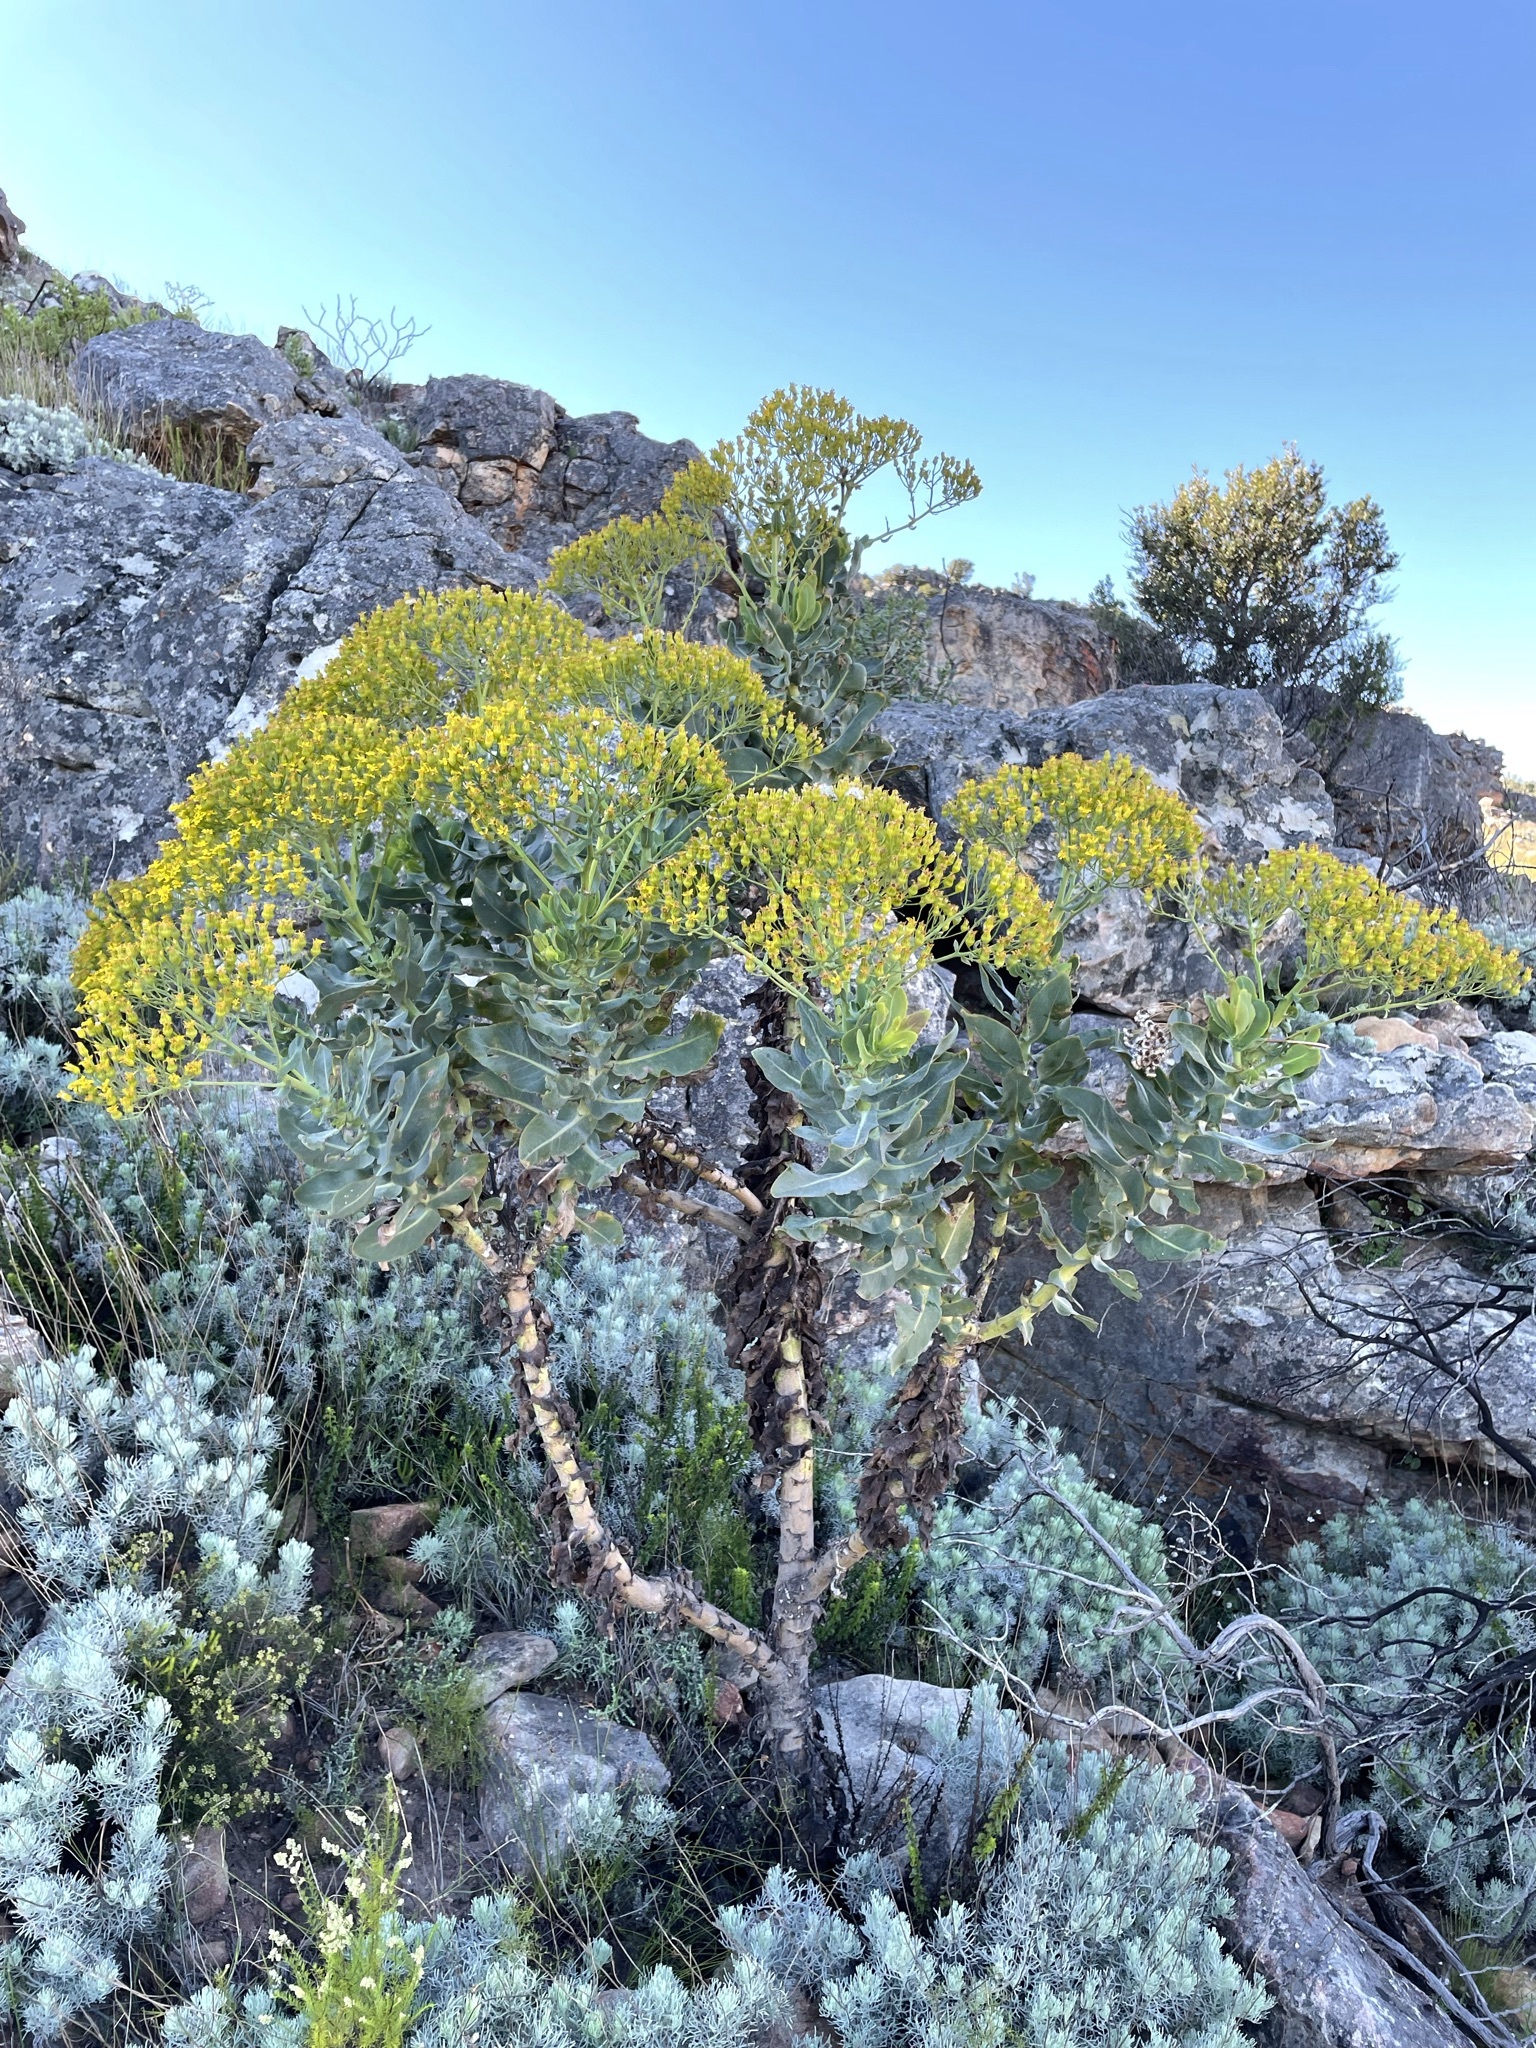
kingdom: Plantae
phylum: Tracheophyta
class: Magnoliopsida
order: Asterales
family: Asteraceae
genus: Othonna
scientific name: Othonna parviflora
